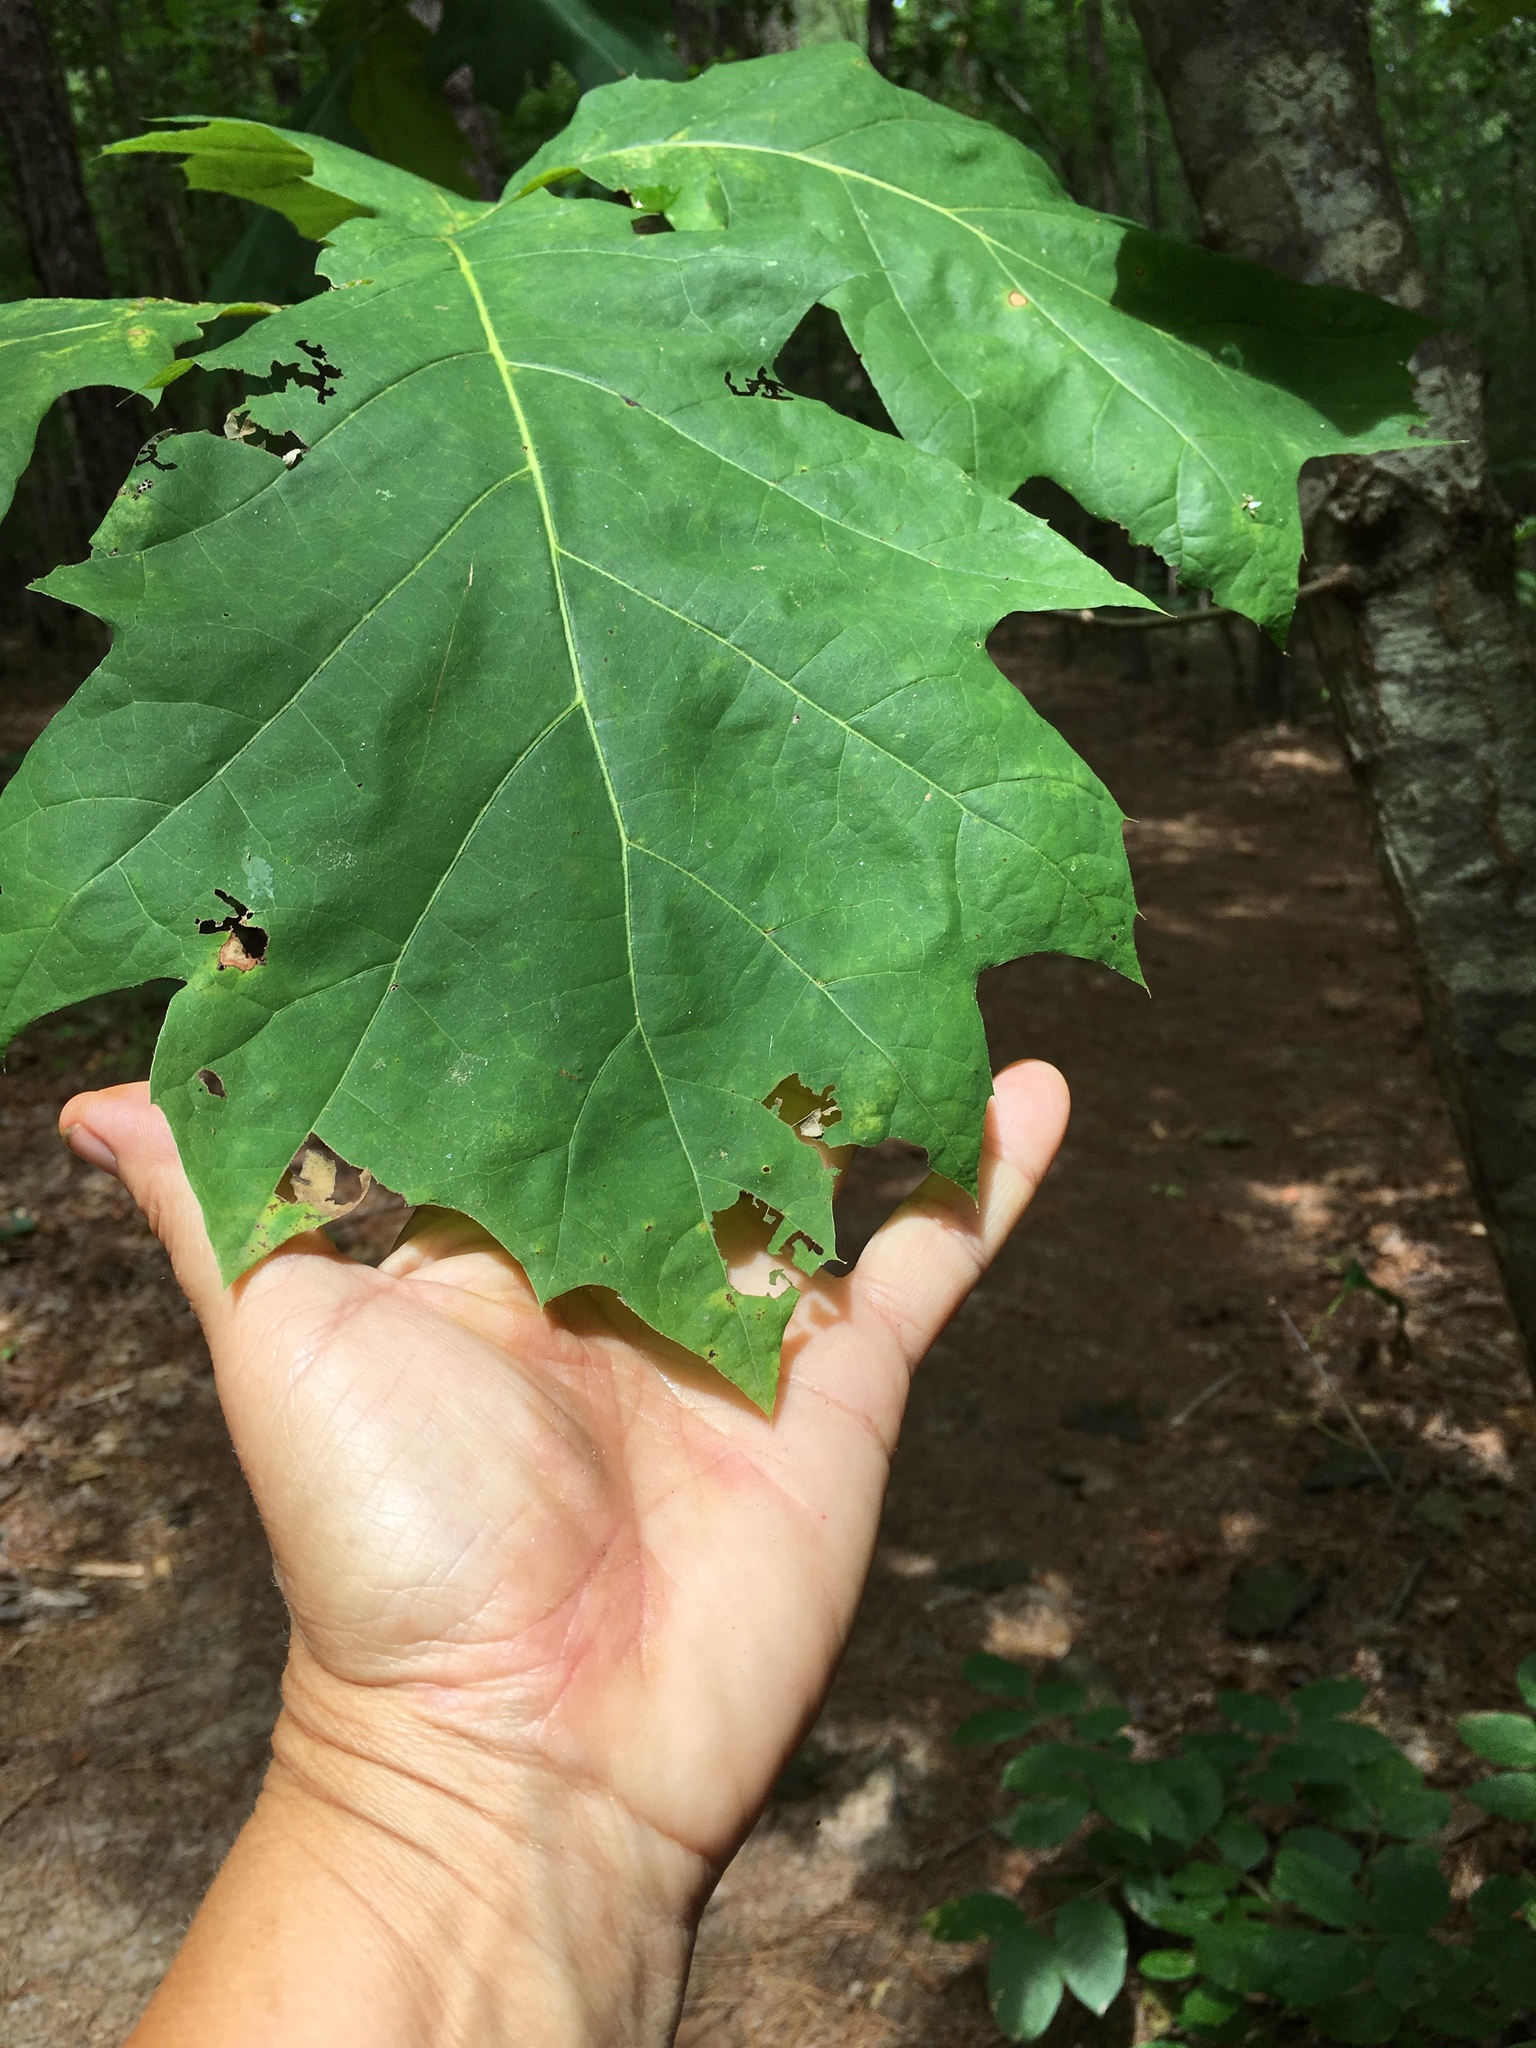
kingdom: Plantae
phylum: Tracheophyta
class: Magnoliopsida
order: Fagales
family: Fagaceae
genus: Quercus
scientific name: Quercus rubra
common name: Red oak
